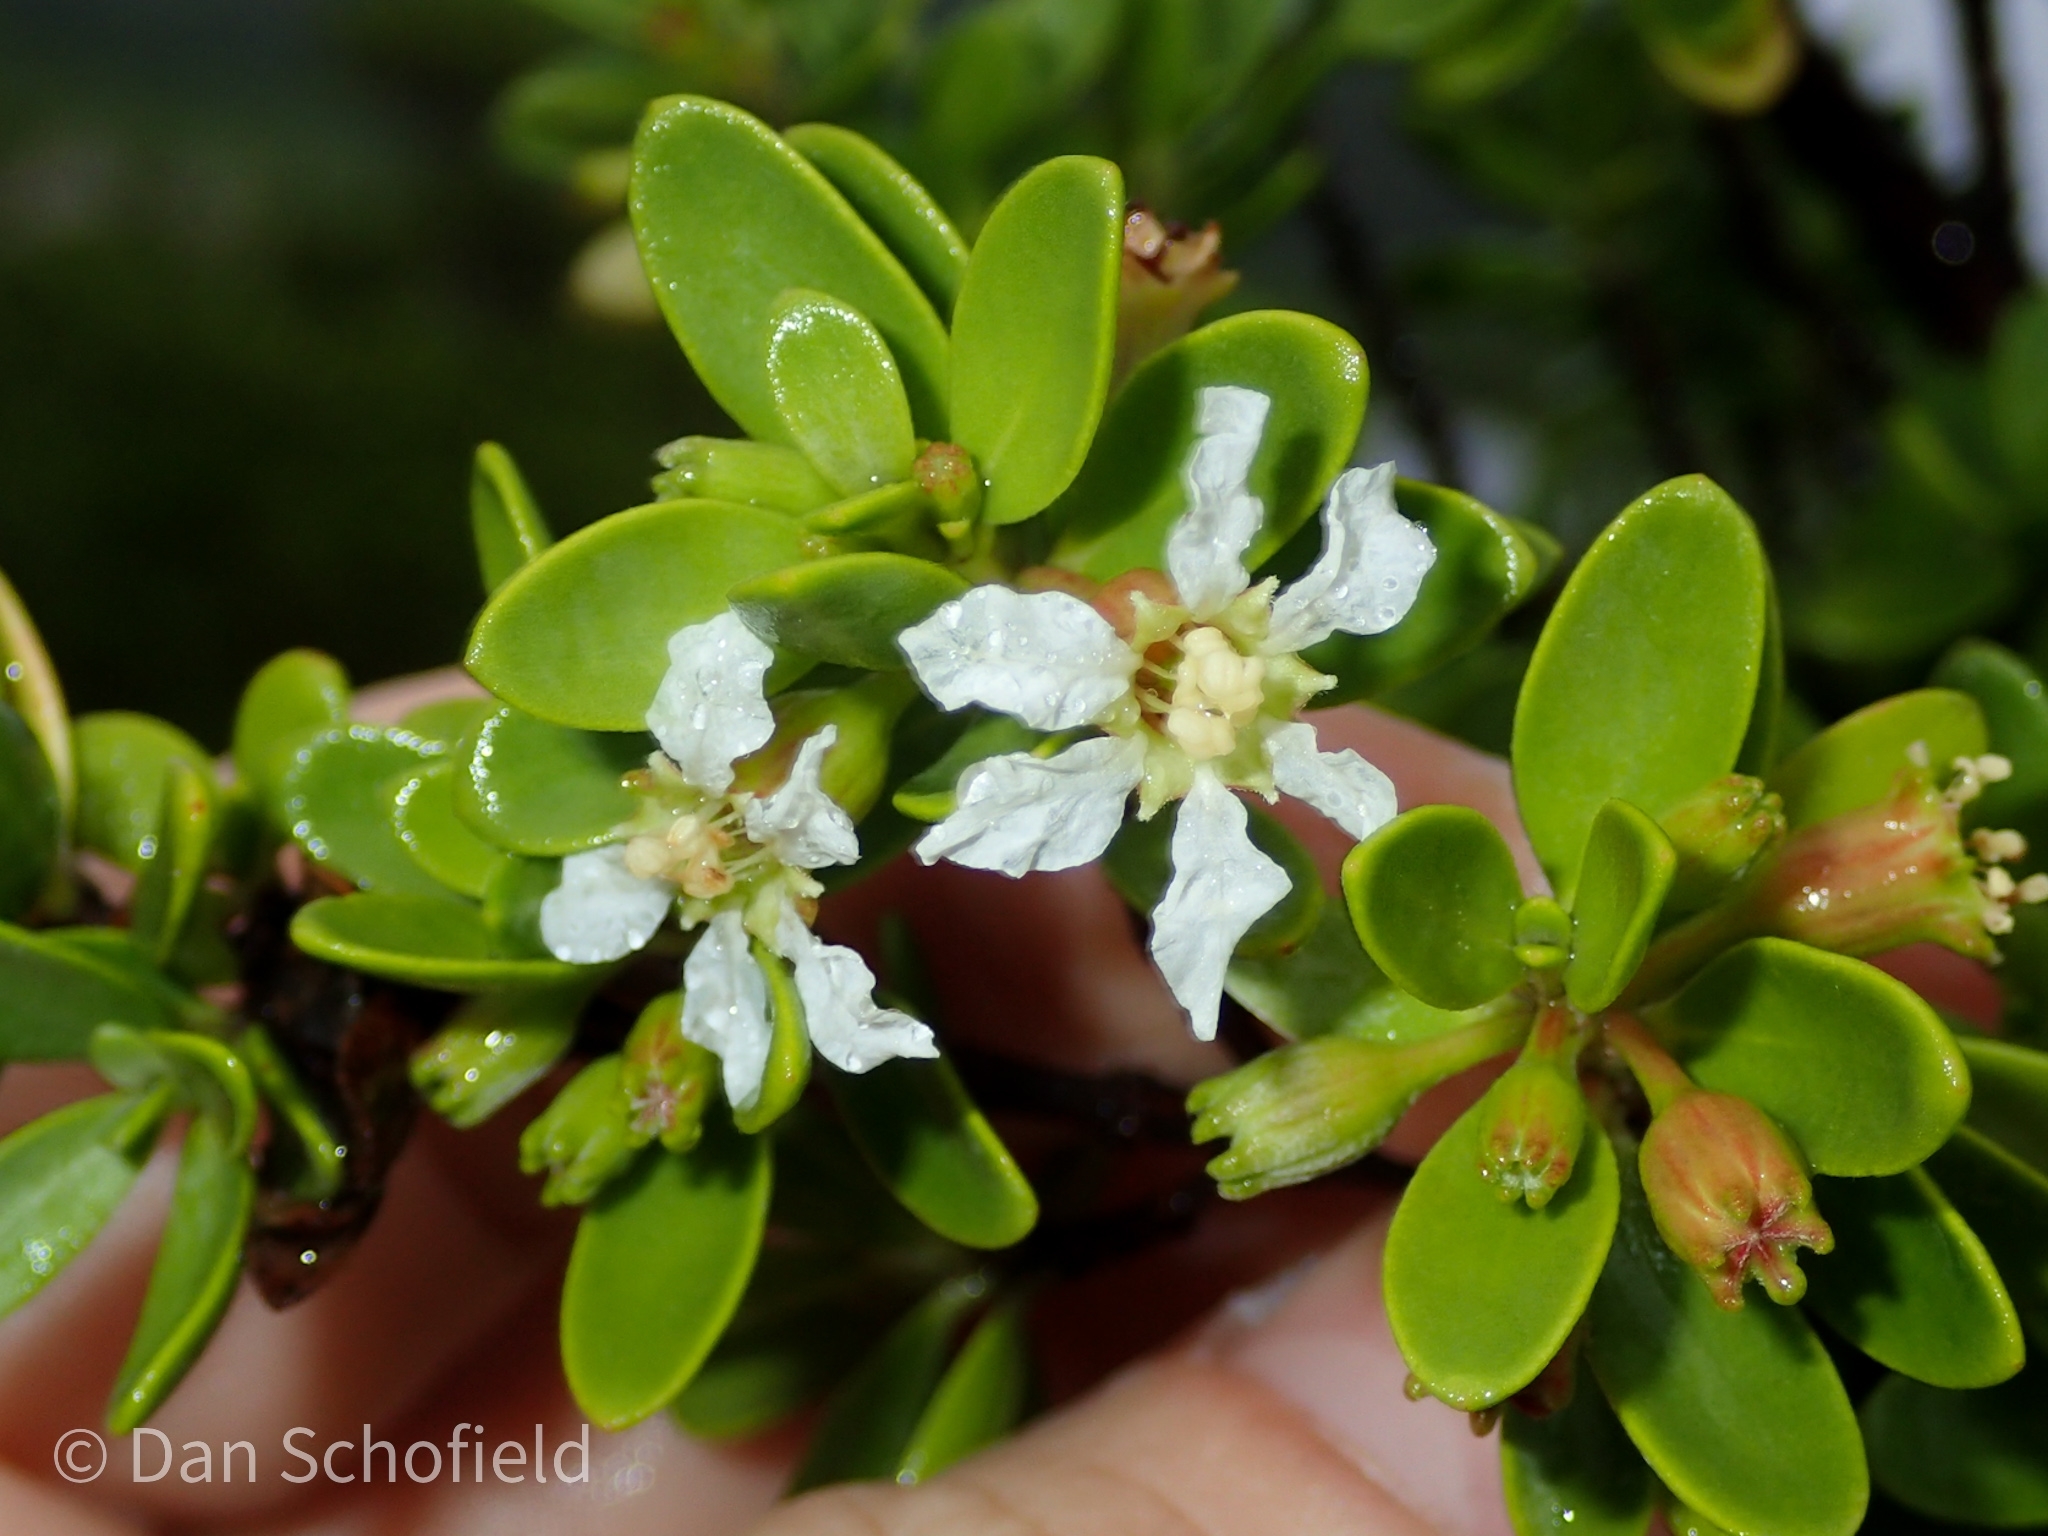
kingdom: Plantae
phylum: Tracheophyta
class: Magnoliopsida
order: Myrtales
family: Lythraceae
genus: Pemphis
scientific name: Pemphis acidula
